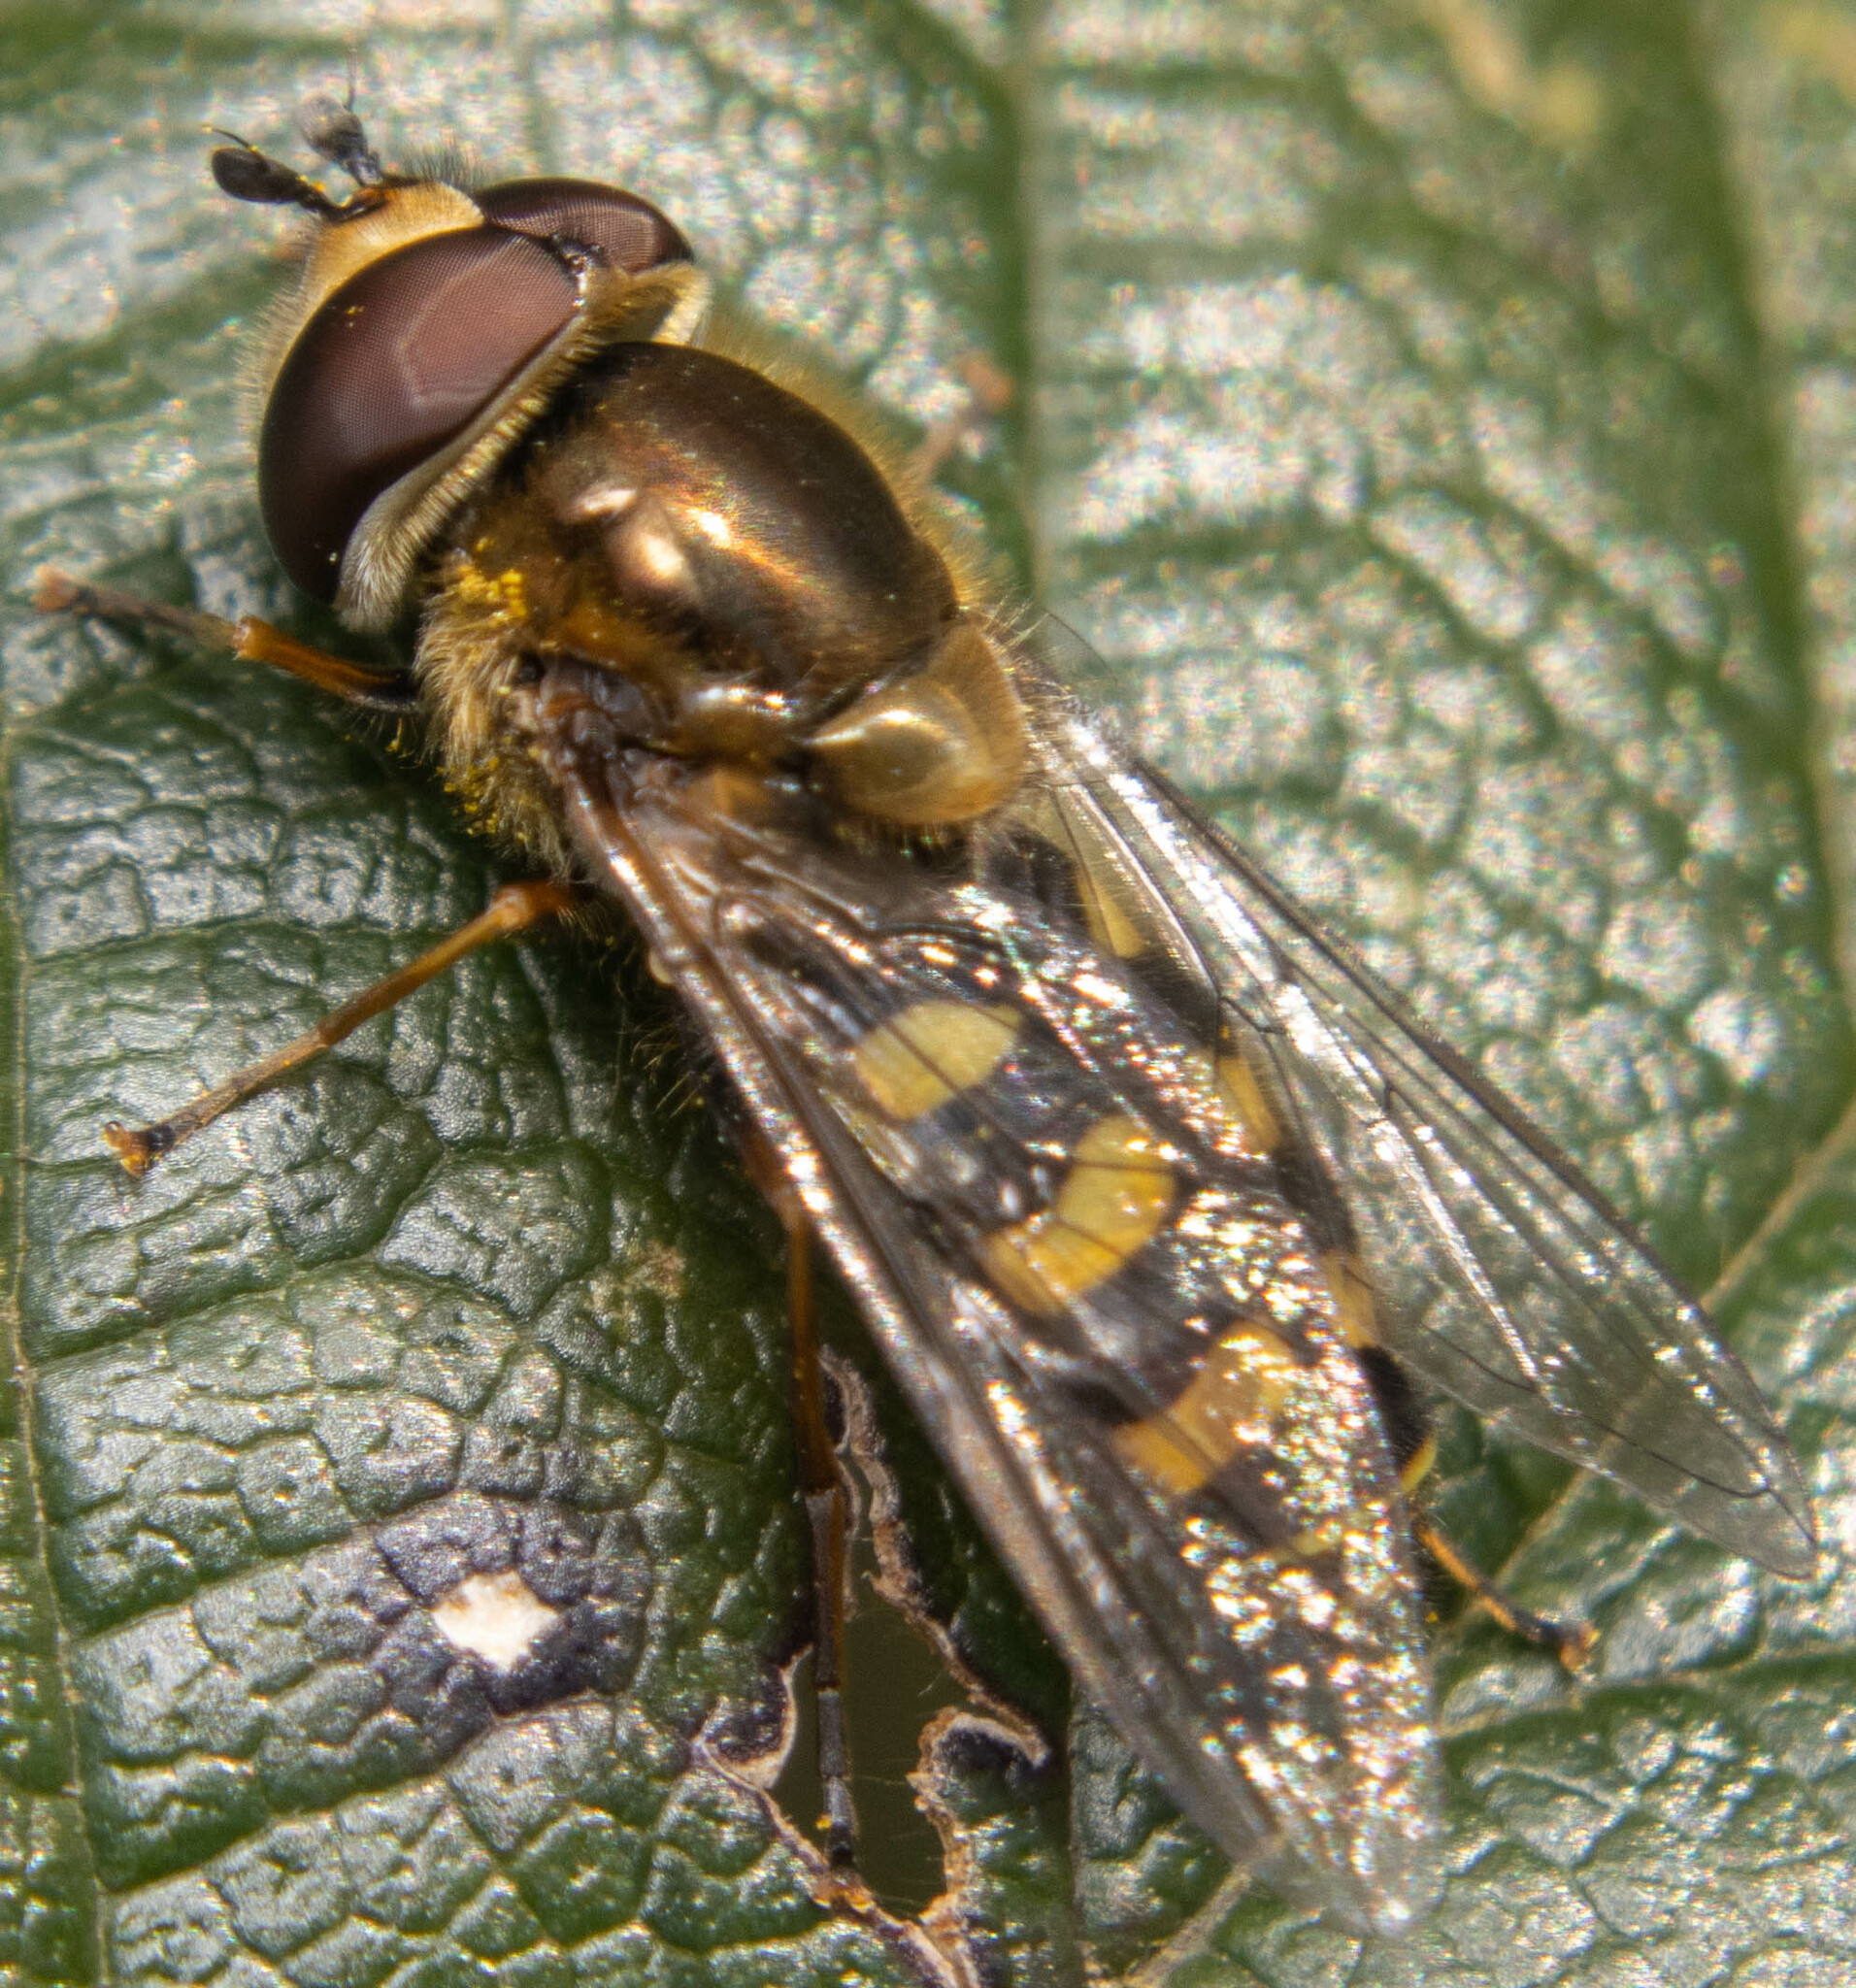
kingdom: Animalia
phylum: Arthropoda
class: Insecta
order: Diptera
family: Syrphidae
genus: Eupeodes
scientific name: Eupeodes
